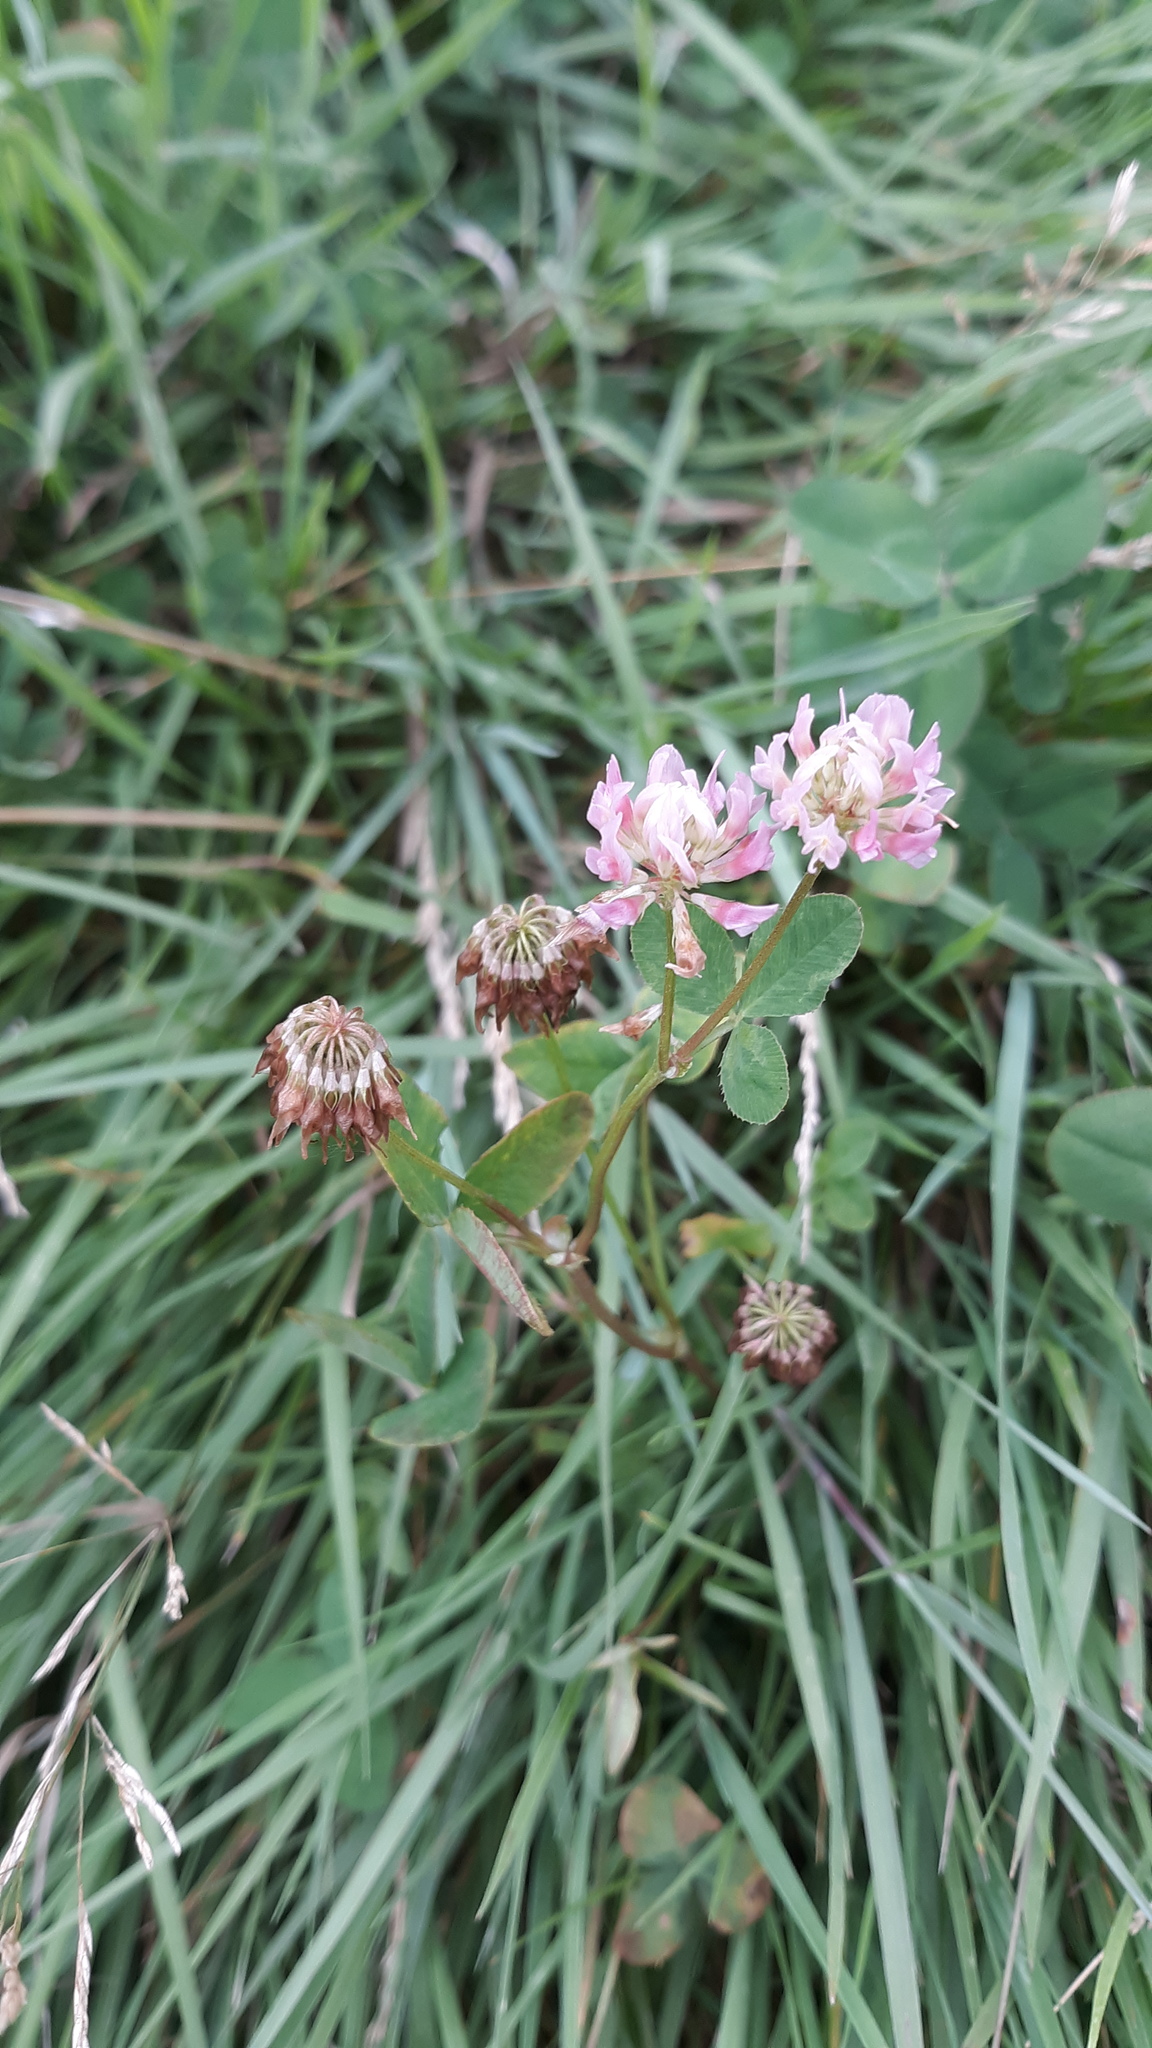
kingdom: Plantae
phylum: Tracheophyta
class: Magnoliopsida
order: Fabales
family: Fabaceae
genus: Trifolium
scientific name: Trifolium hybridum
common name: Alsike clover
